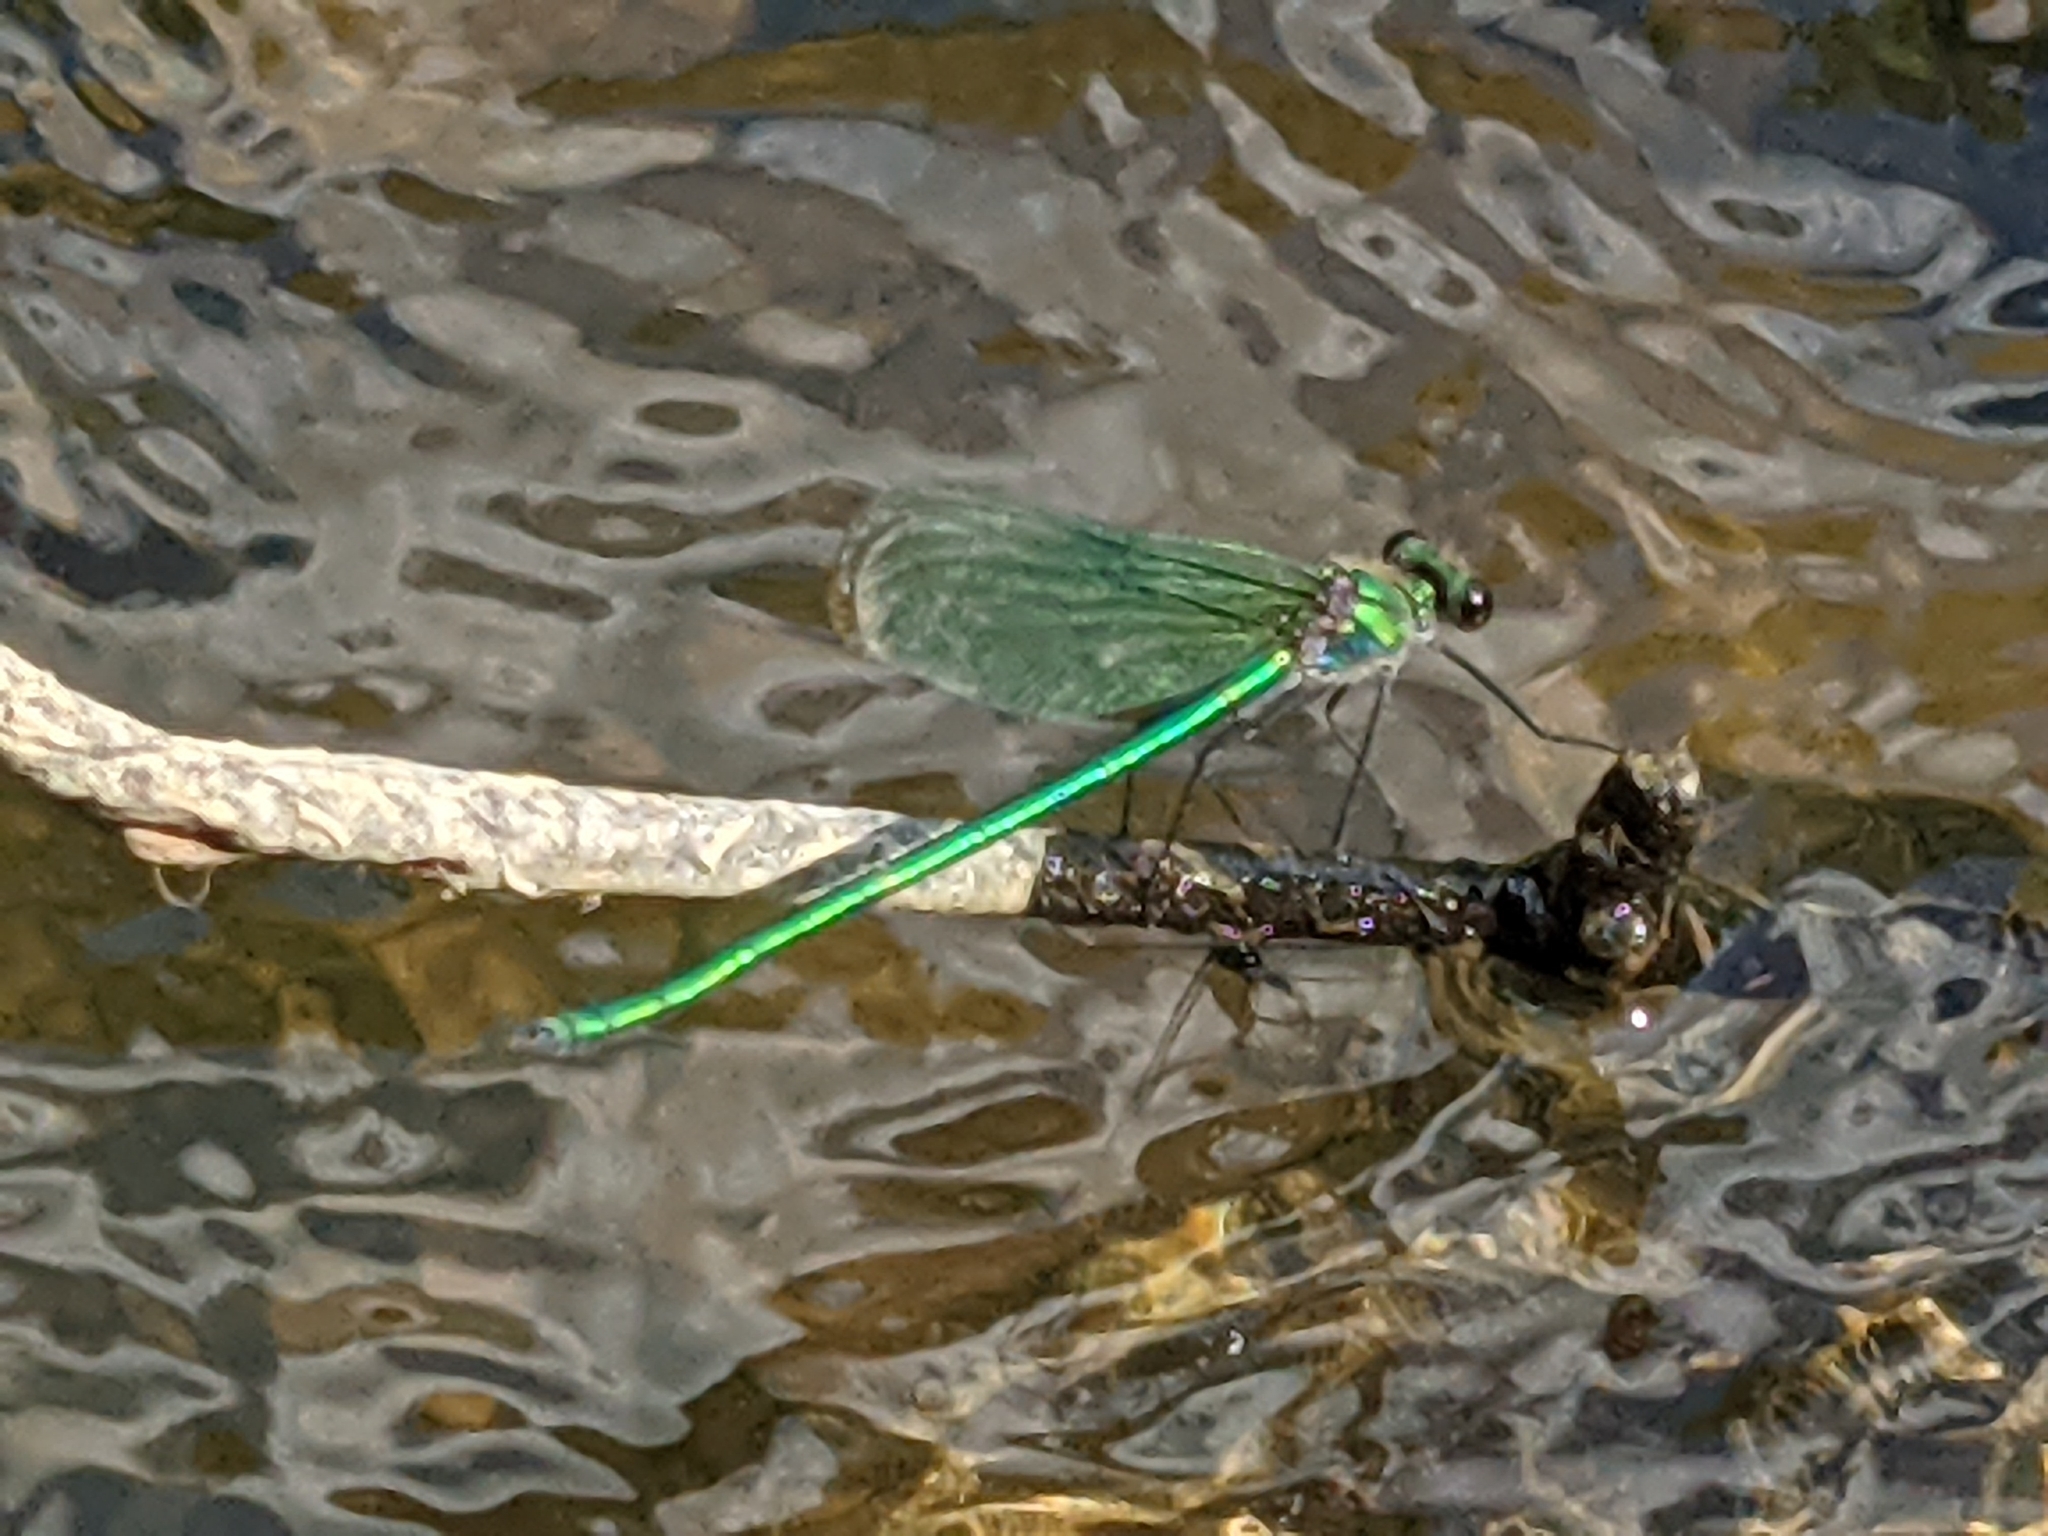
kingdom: Animalia
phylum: Arthropoda
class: Insecta
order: Odonata
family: Calopterygidae
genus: Calopteryx
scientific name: Calopteryx angustipennis
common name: Appalachian jewelwing
